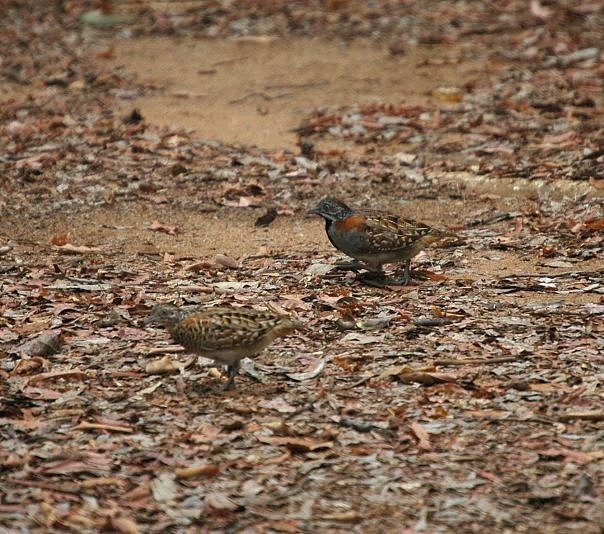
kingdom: Animalia
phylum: Chordata
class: Aves
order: Charadriiformes
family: Turnicidae
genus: Turnix
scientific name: Turnix nigricollis
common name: Madagascar buttonquail
